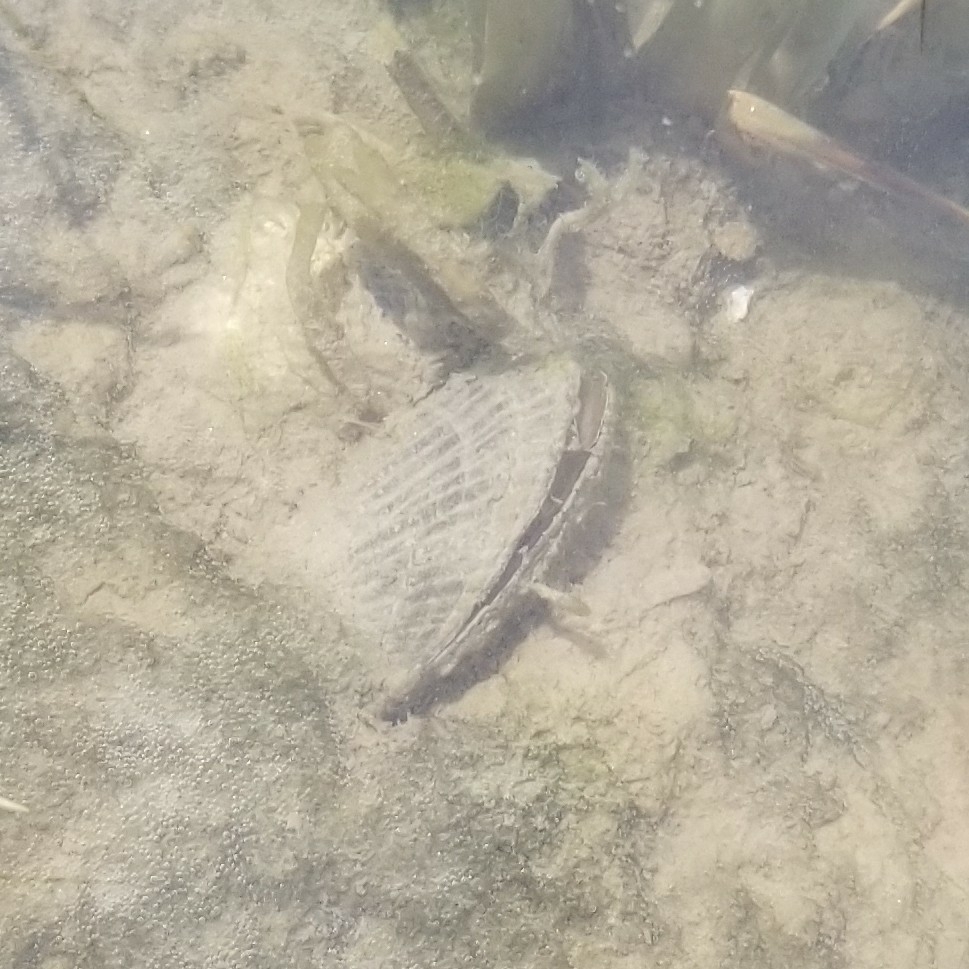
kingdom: Animalia
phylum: Mollusca
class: Bivalvia
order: Mytilida
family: Mytilidae
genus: Geukensia
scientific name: Geukensia demissa
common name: Ribbed mussel
